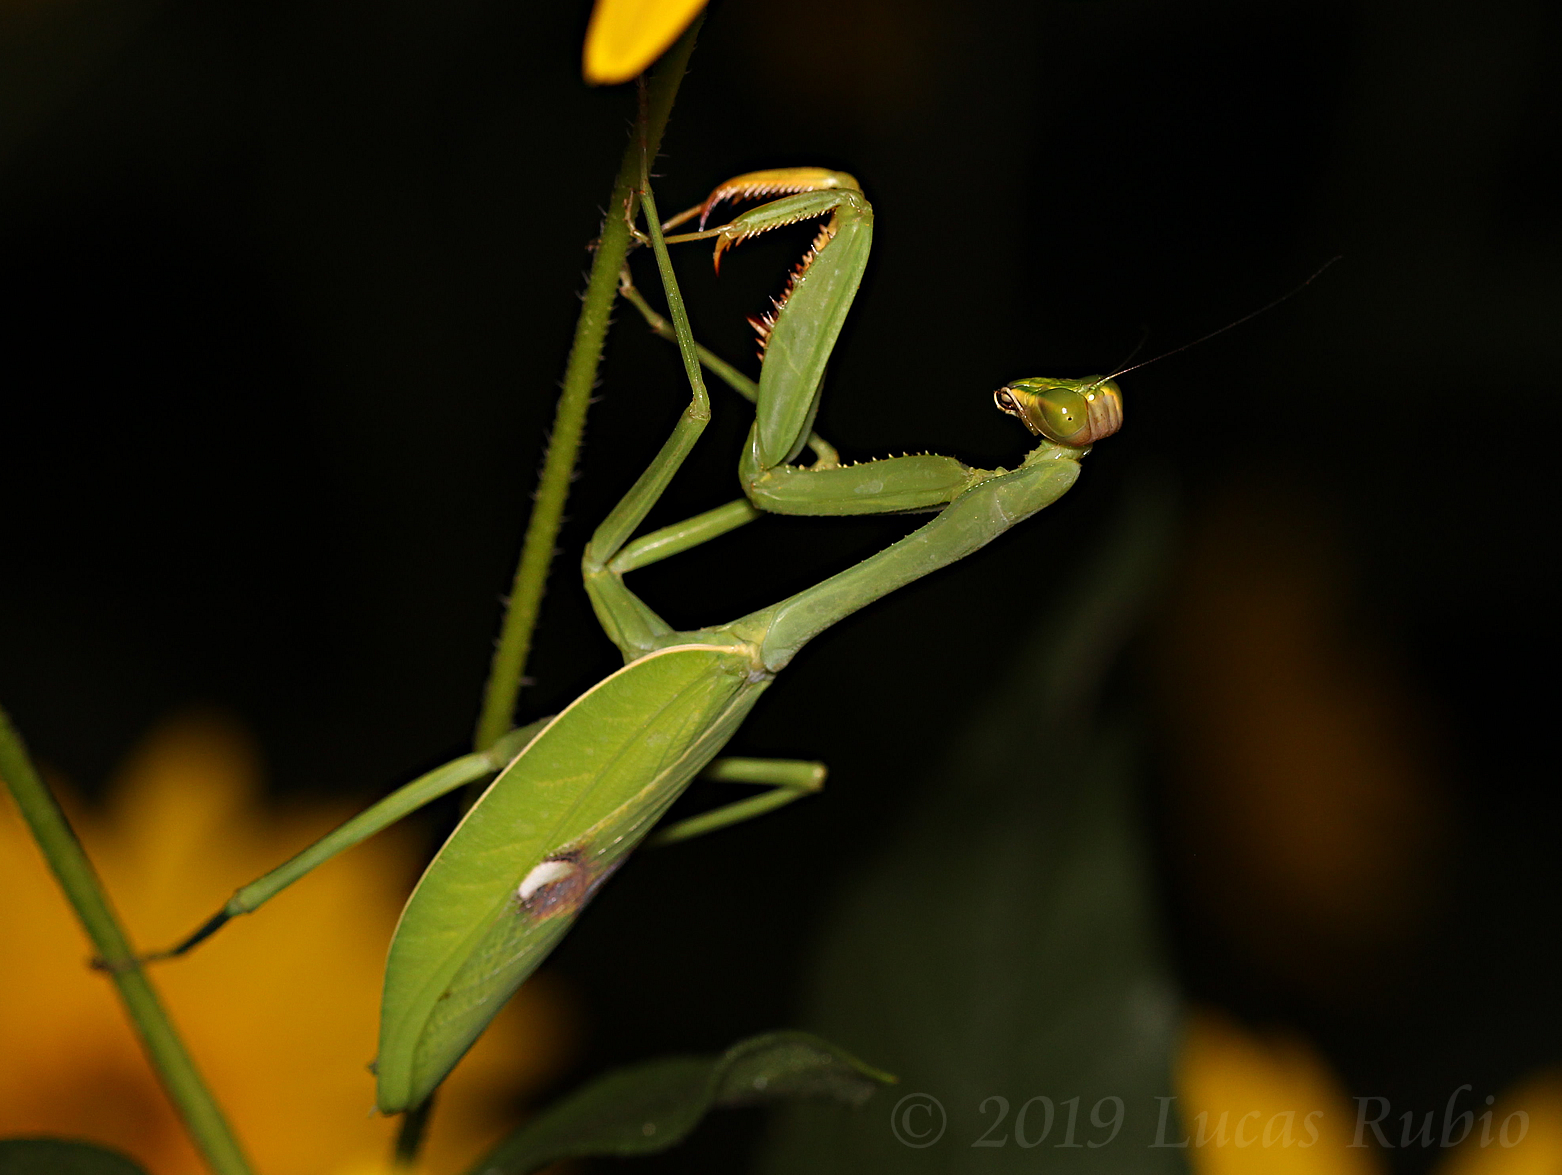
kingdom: Animalia
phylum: Arthropoda
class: Insecta
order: Mantodea
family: Mantidae
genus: Stagmatoptera
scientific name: Stagmatoptera hyaloptera
